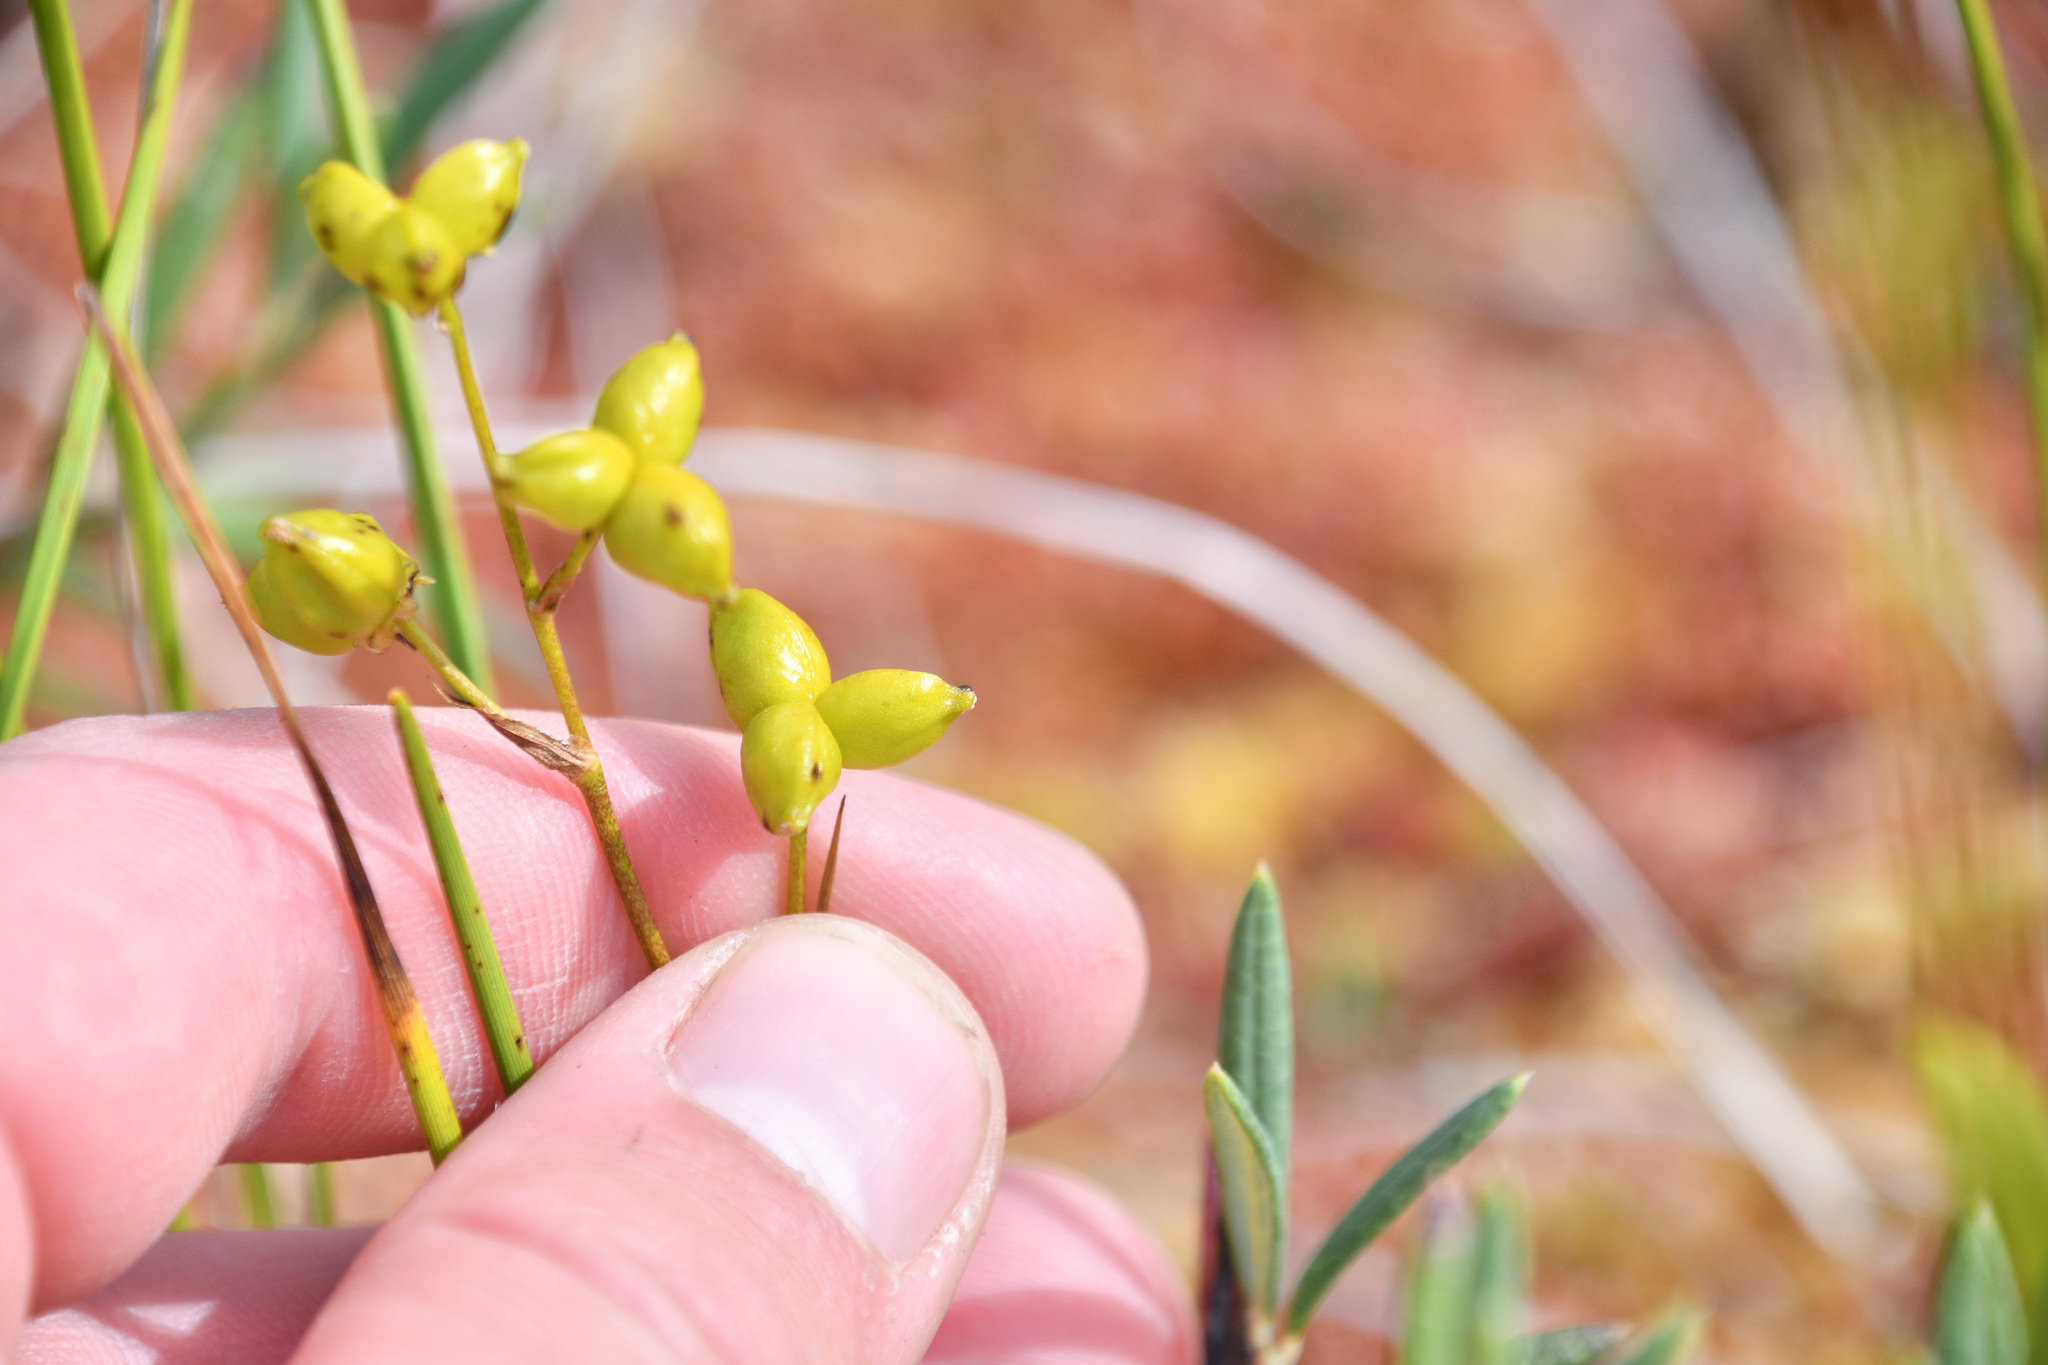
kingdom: Plantae
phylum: Tracheophyta
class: Liliopsida
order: Alismatales
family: Scheuchzeriaceae
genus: Scheuchzeria
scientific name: Scheuchzeria palustris
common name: Rannoch-rush
